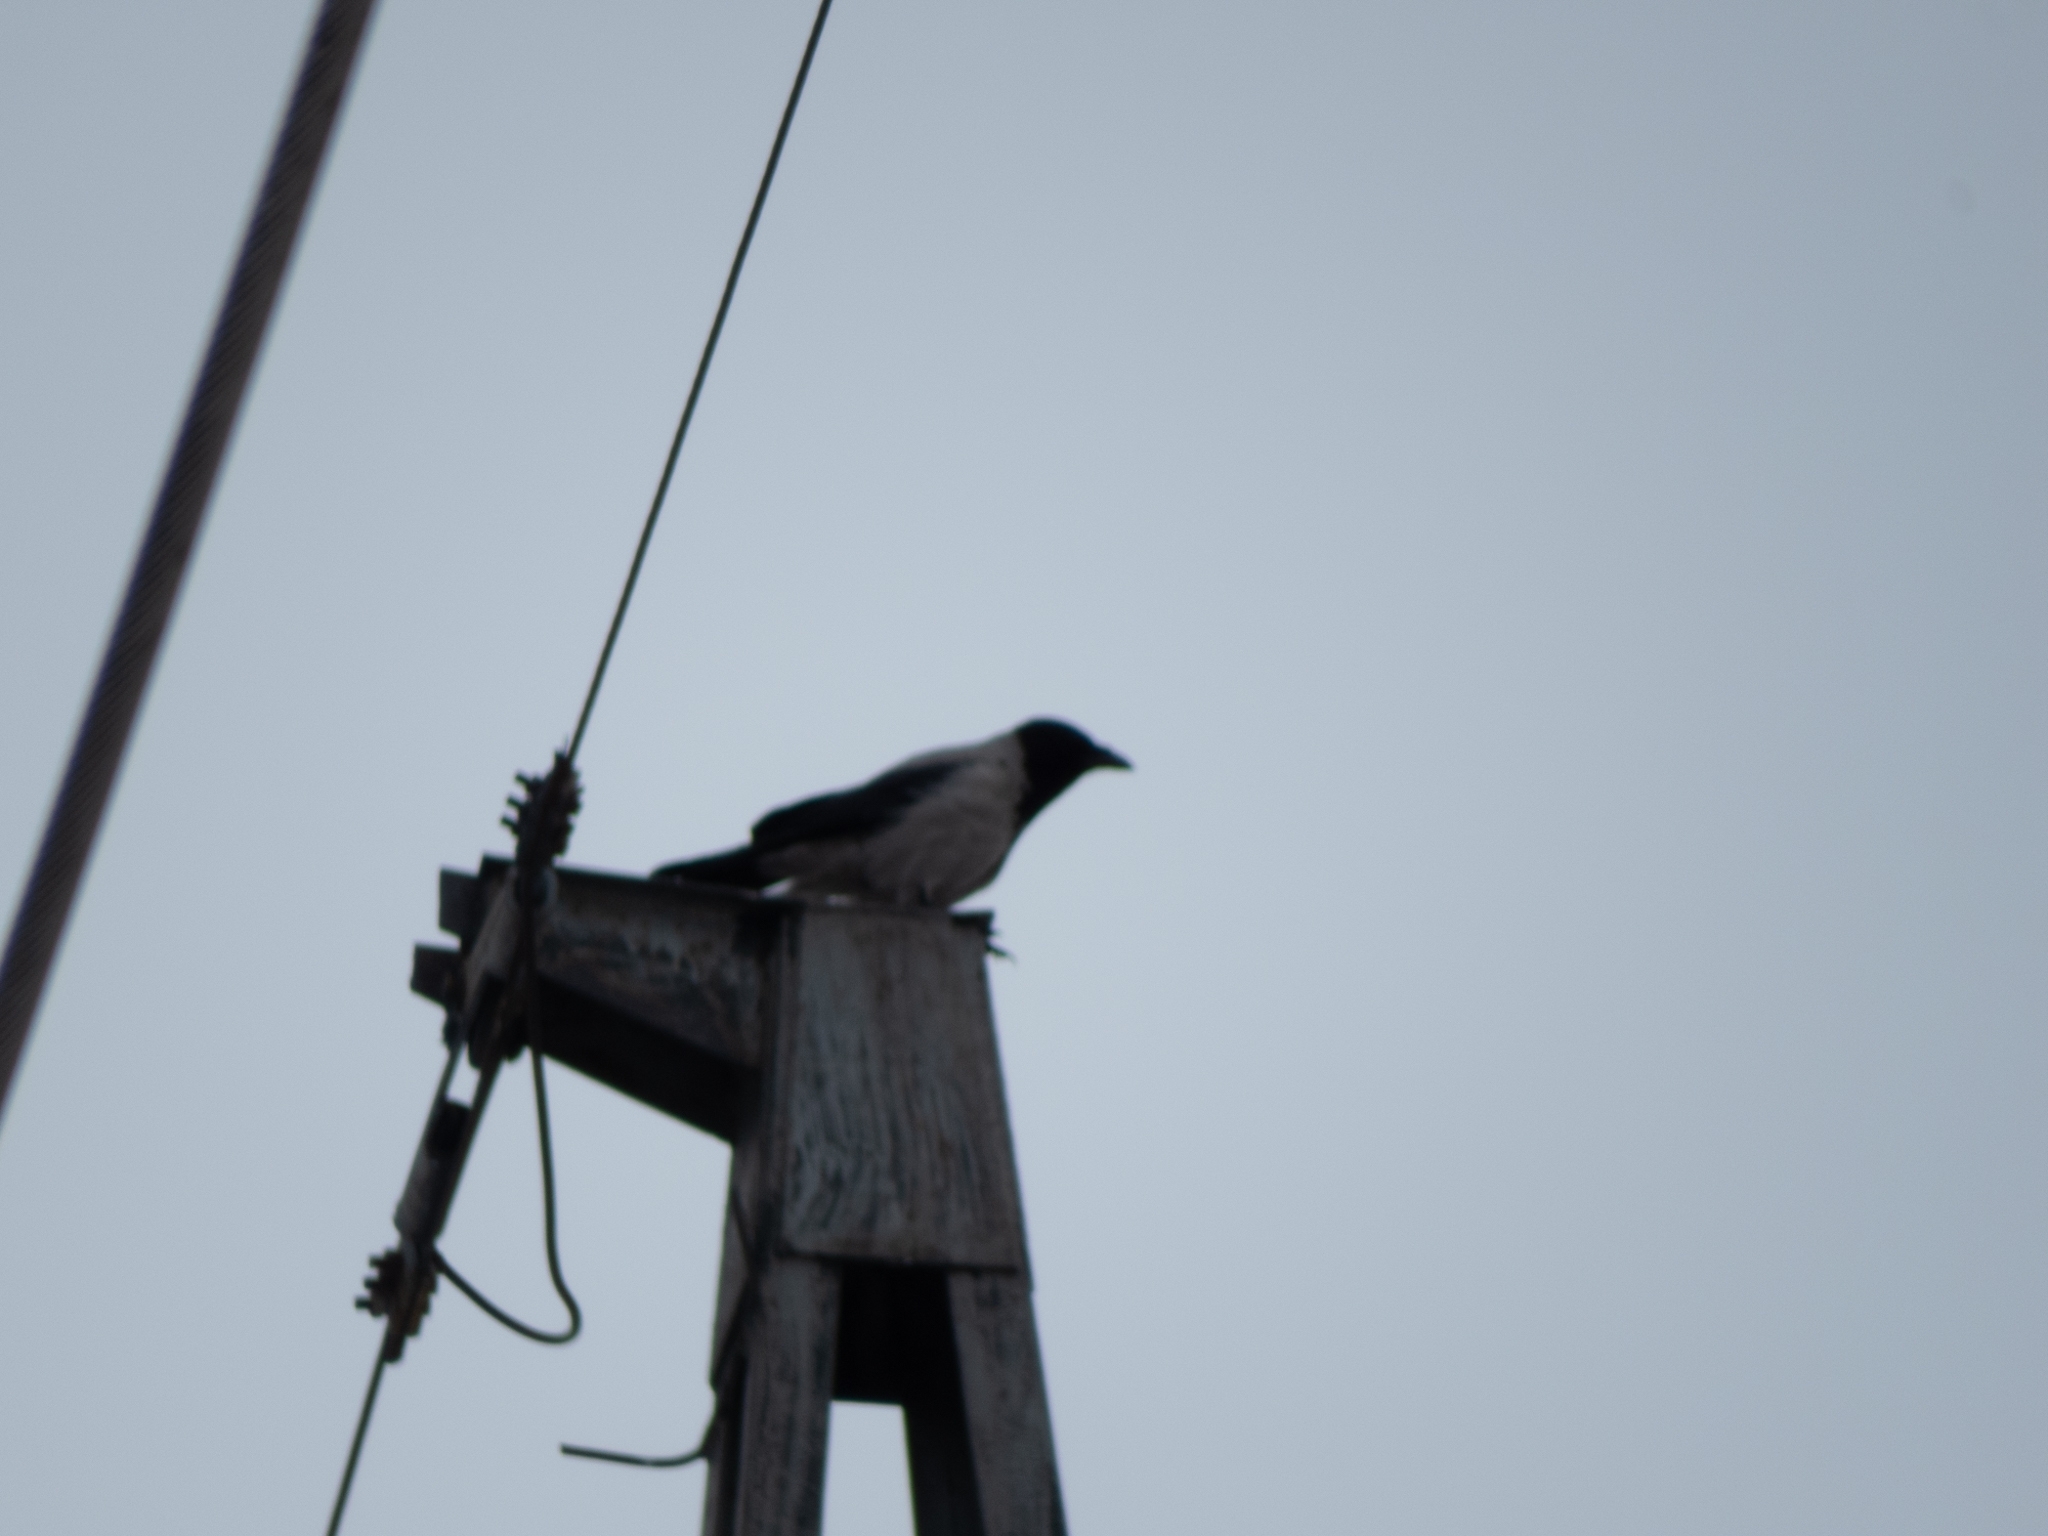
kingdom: Animalia
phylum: Chordata
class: Aves
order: Passeriformes
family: Corvidae
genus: Corvus
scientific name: Corvus cornix
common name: Hooded crow
